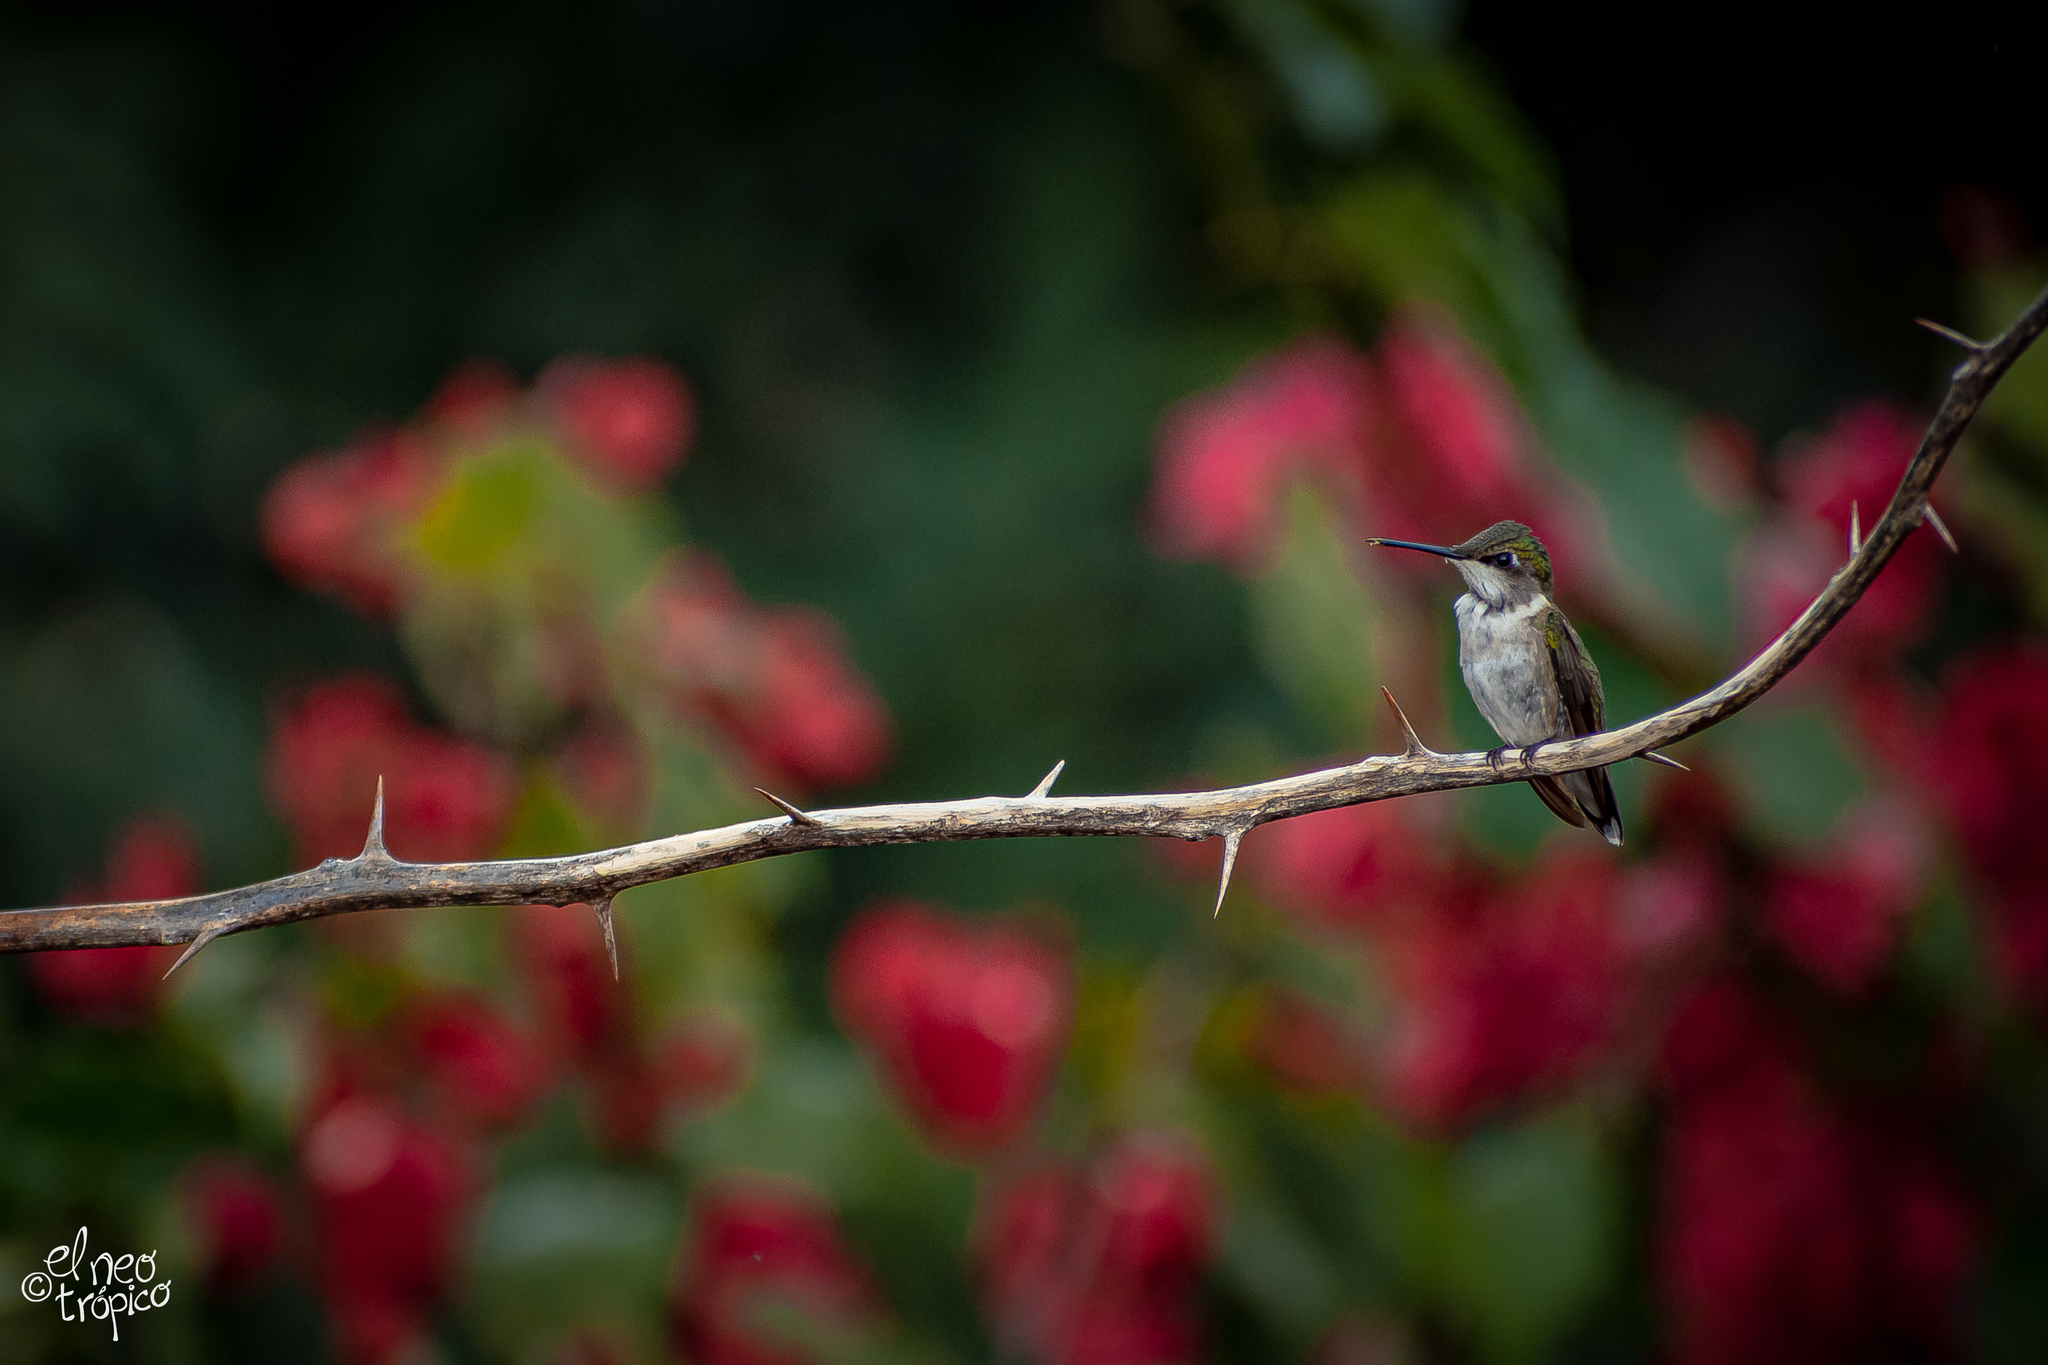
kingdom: Animalia
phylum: Chordata
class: Aves
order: Apodiformes
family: Trochilidae
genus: Archilochus
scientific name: Archilochus colubris
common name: Ruby-throated hummingbird
